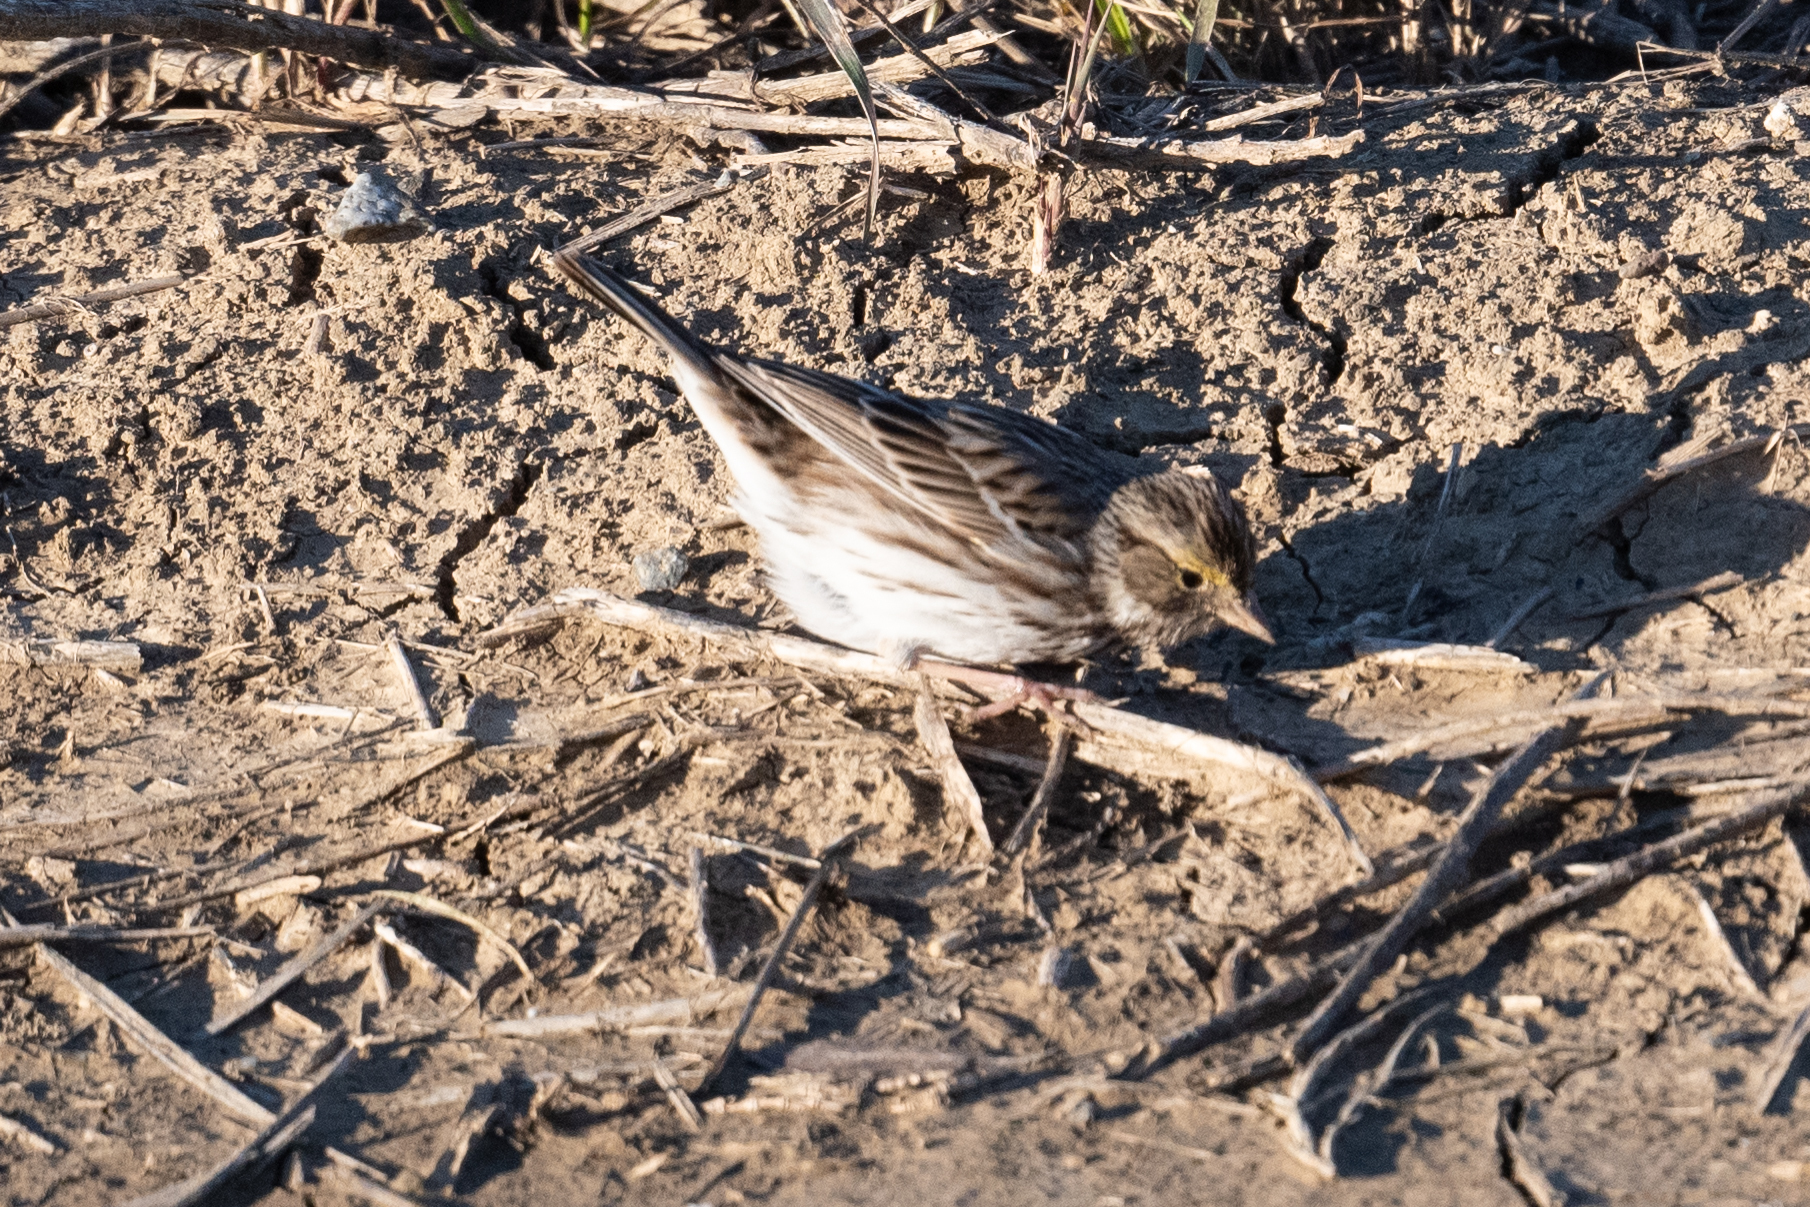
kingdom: Animalia
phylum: Chordata
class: Aves
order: Passeriformes
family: Passerellidae
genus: Passerculus
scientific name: Passerculus sandwichensis
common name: Savannah sparrow
